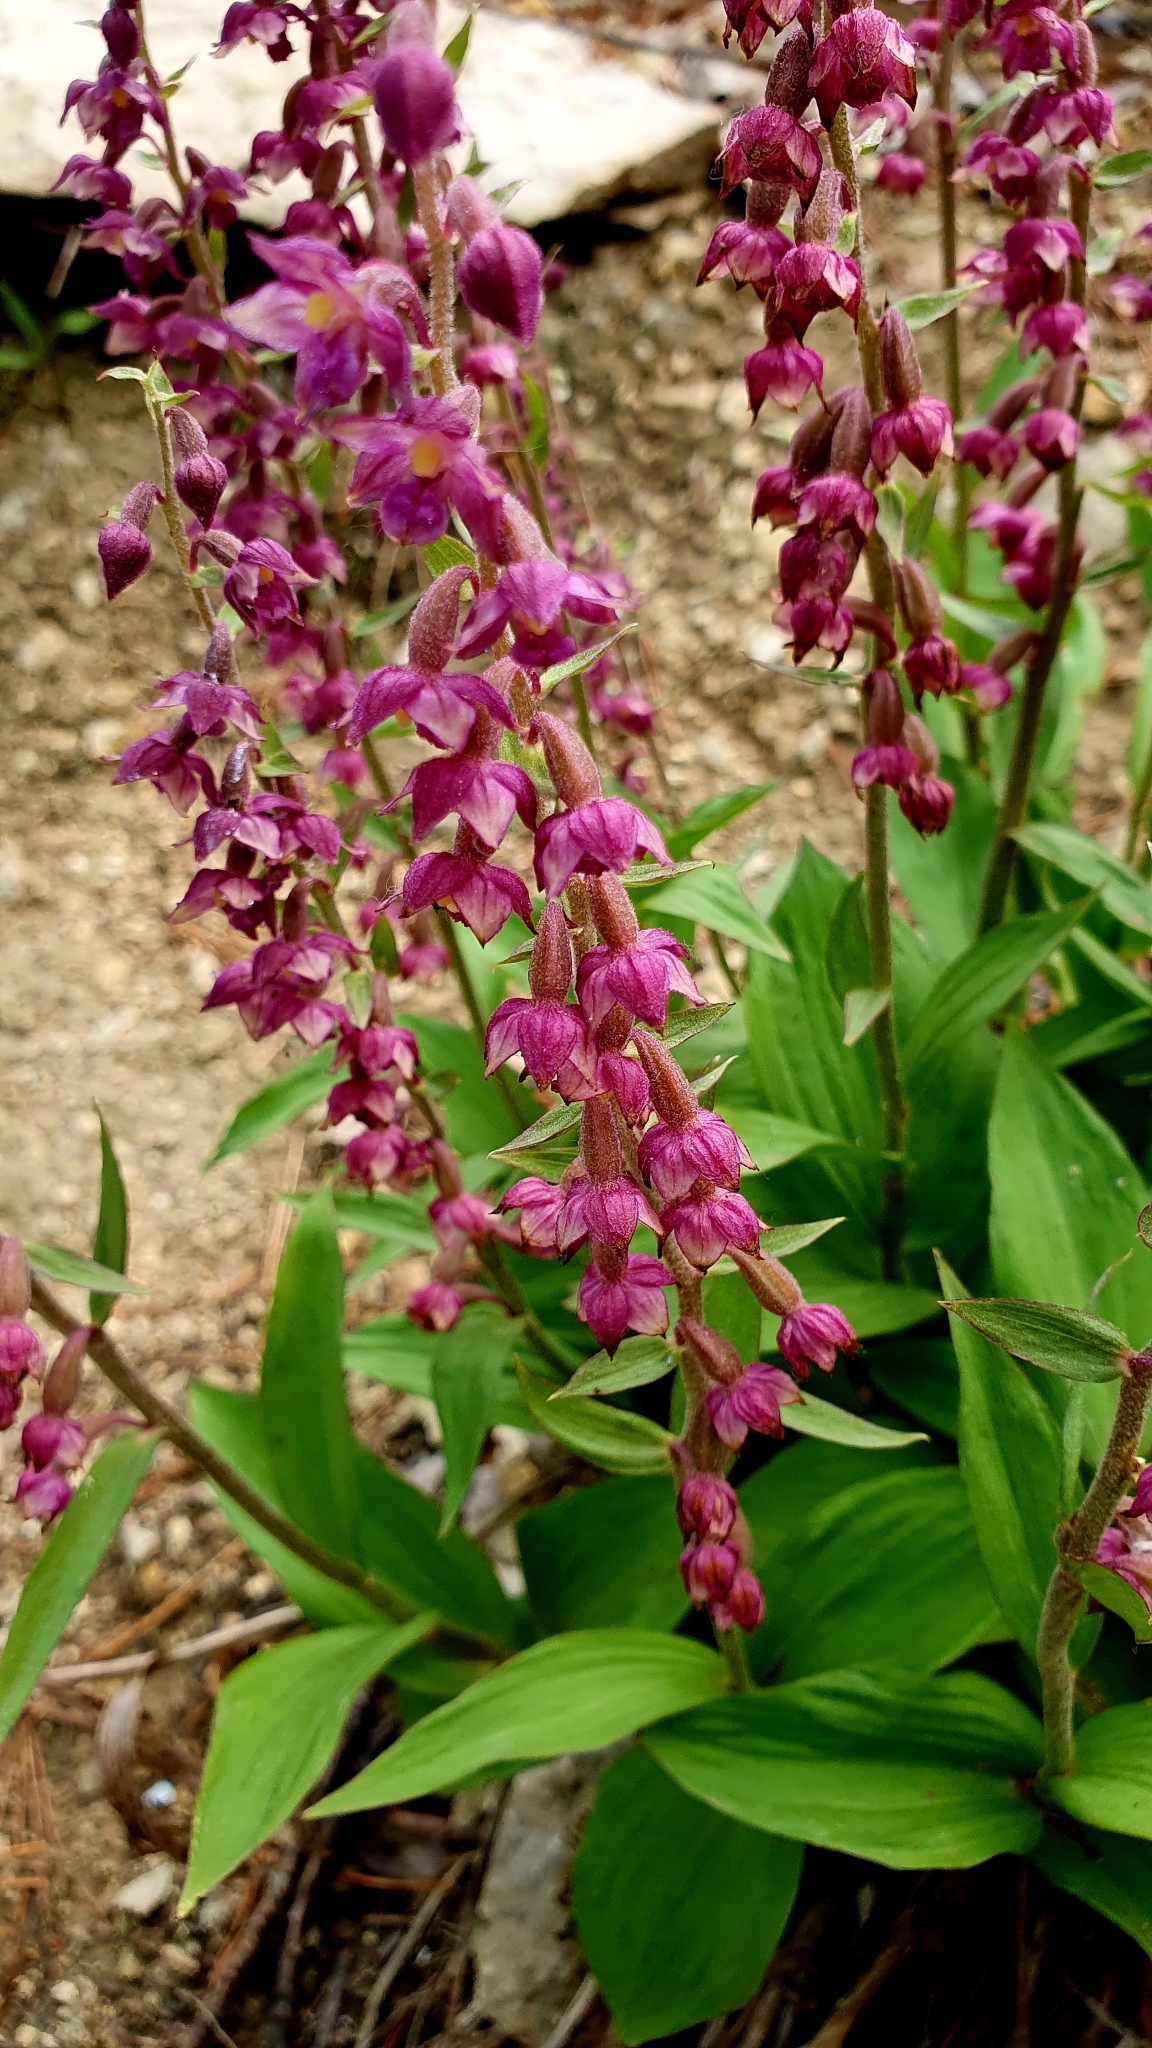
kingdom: Plantae
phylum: Tracheophyta
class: Liliopsida
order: Asparagales
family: Orchidaceae
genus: Epipactis
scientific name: Epipactis atrorubens
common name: Dark-red helleborine
